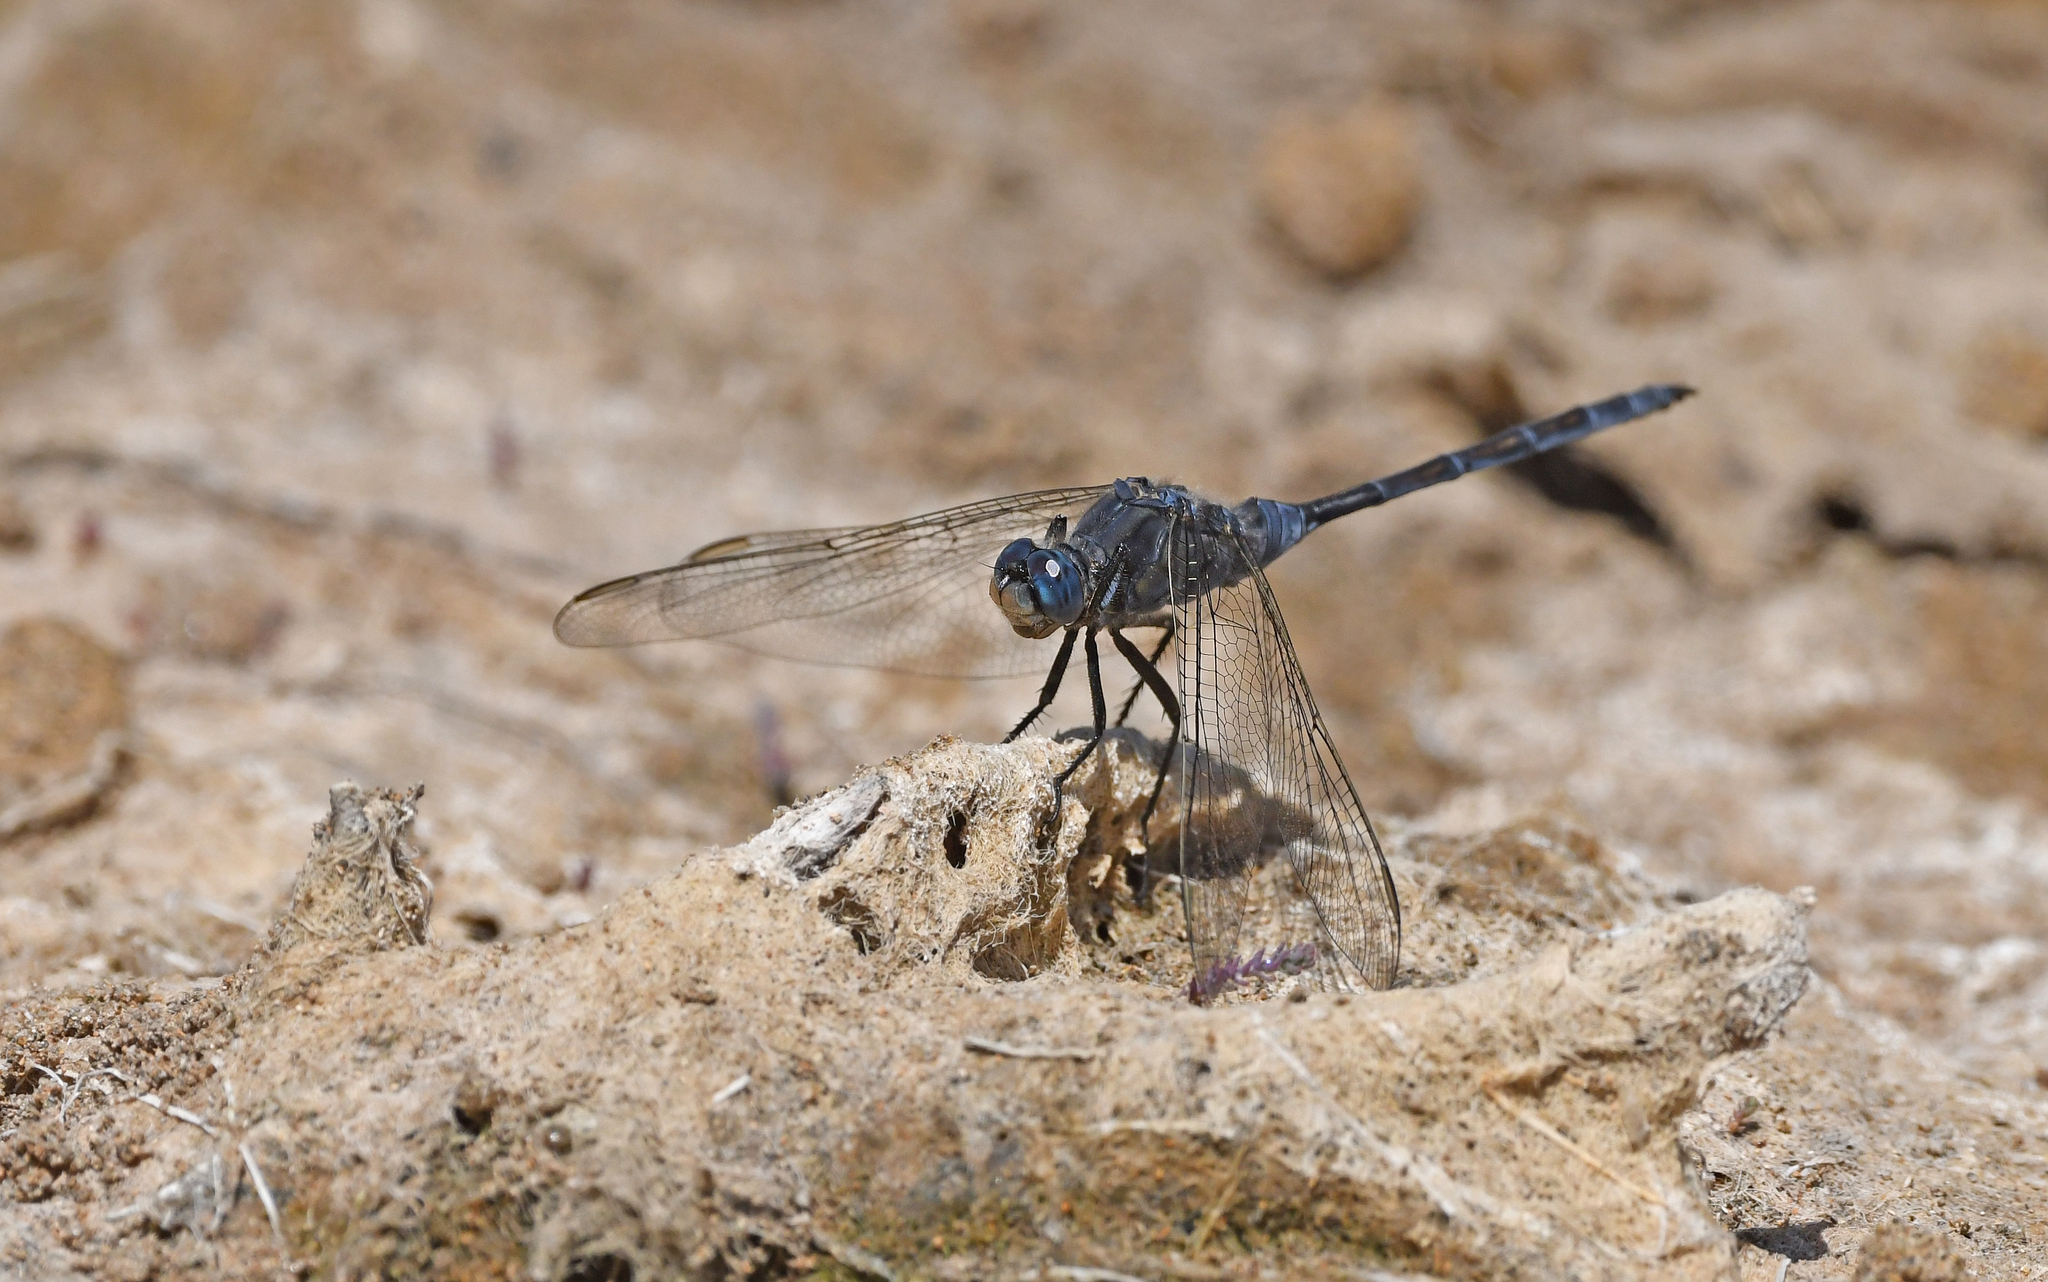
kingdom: Animalia
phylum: Arthropoda
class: Insecta
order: Odonata
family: Libellulidae
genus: Orthetrum
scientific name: Orthetrum trinacria
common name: Long skimmer
